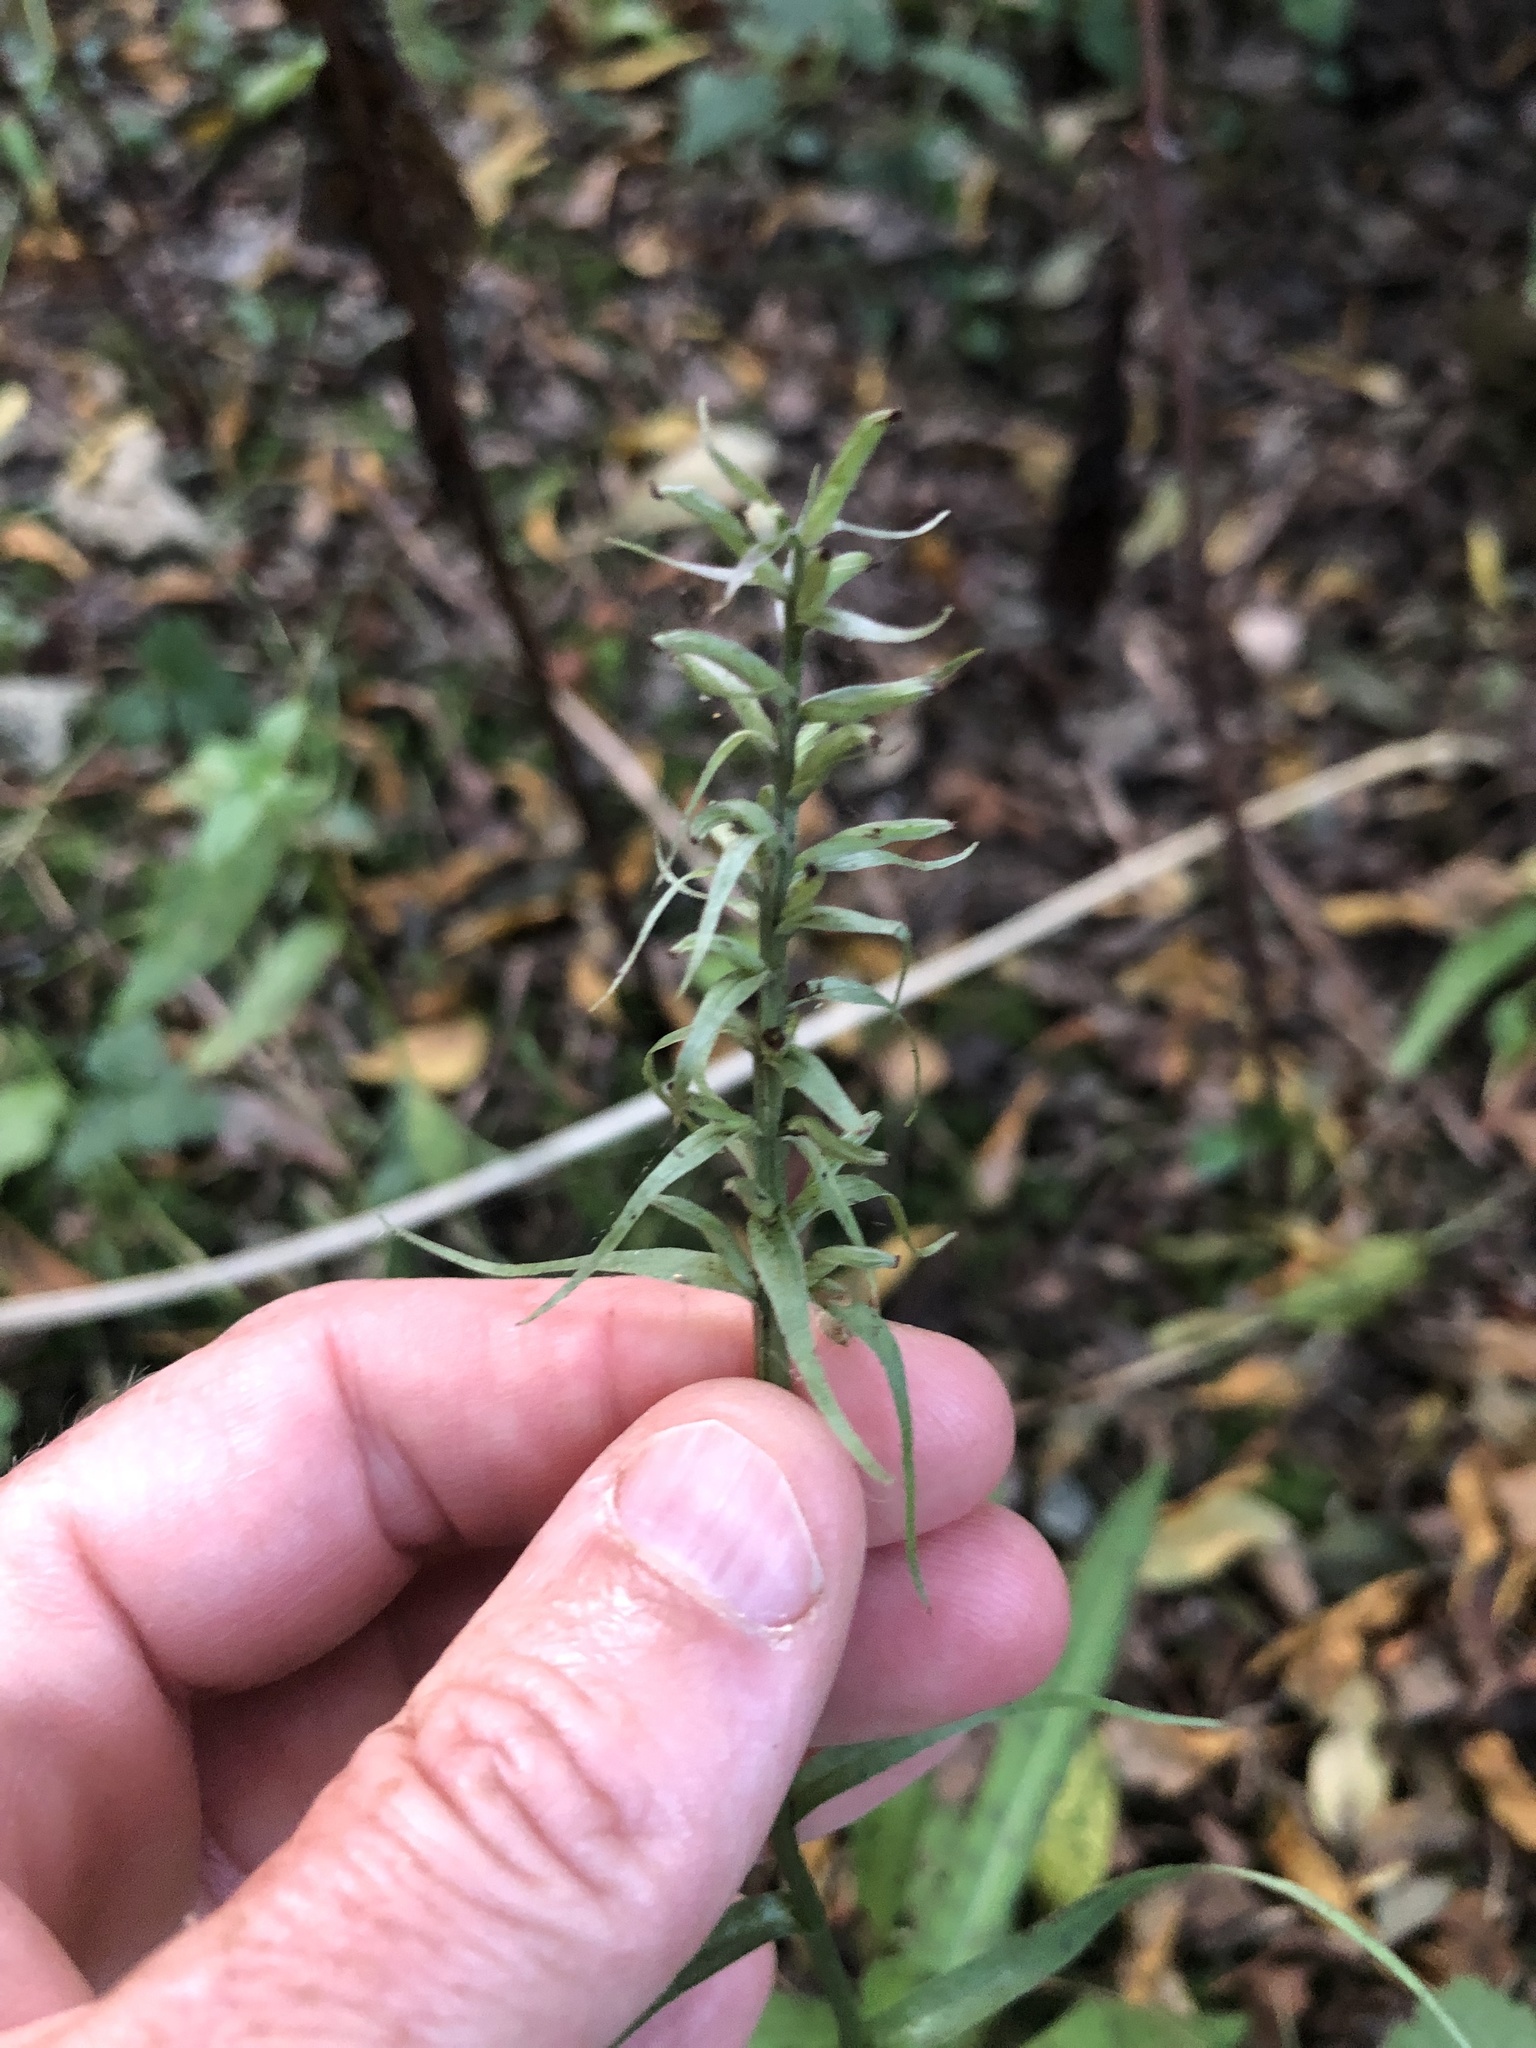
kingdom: Plantae
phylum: Tracheophyta
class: Liliopsida
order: Asparagales
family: Orchidaceae
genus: Dactylorhiza
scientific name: Dactylorhiza maculata
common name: Heath spotted-orchid
